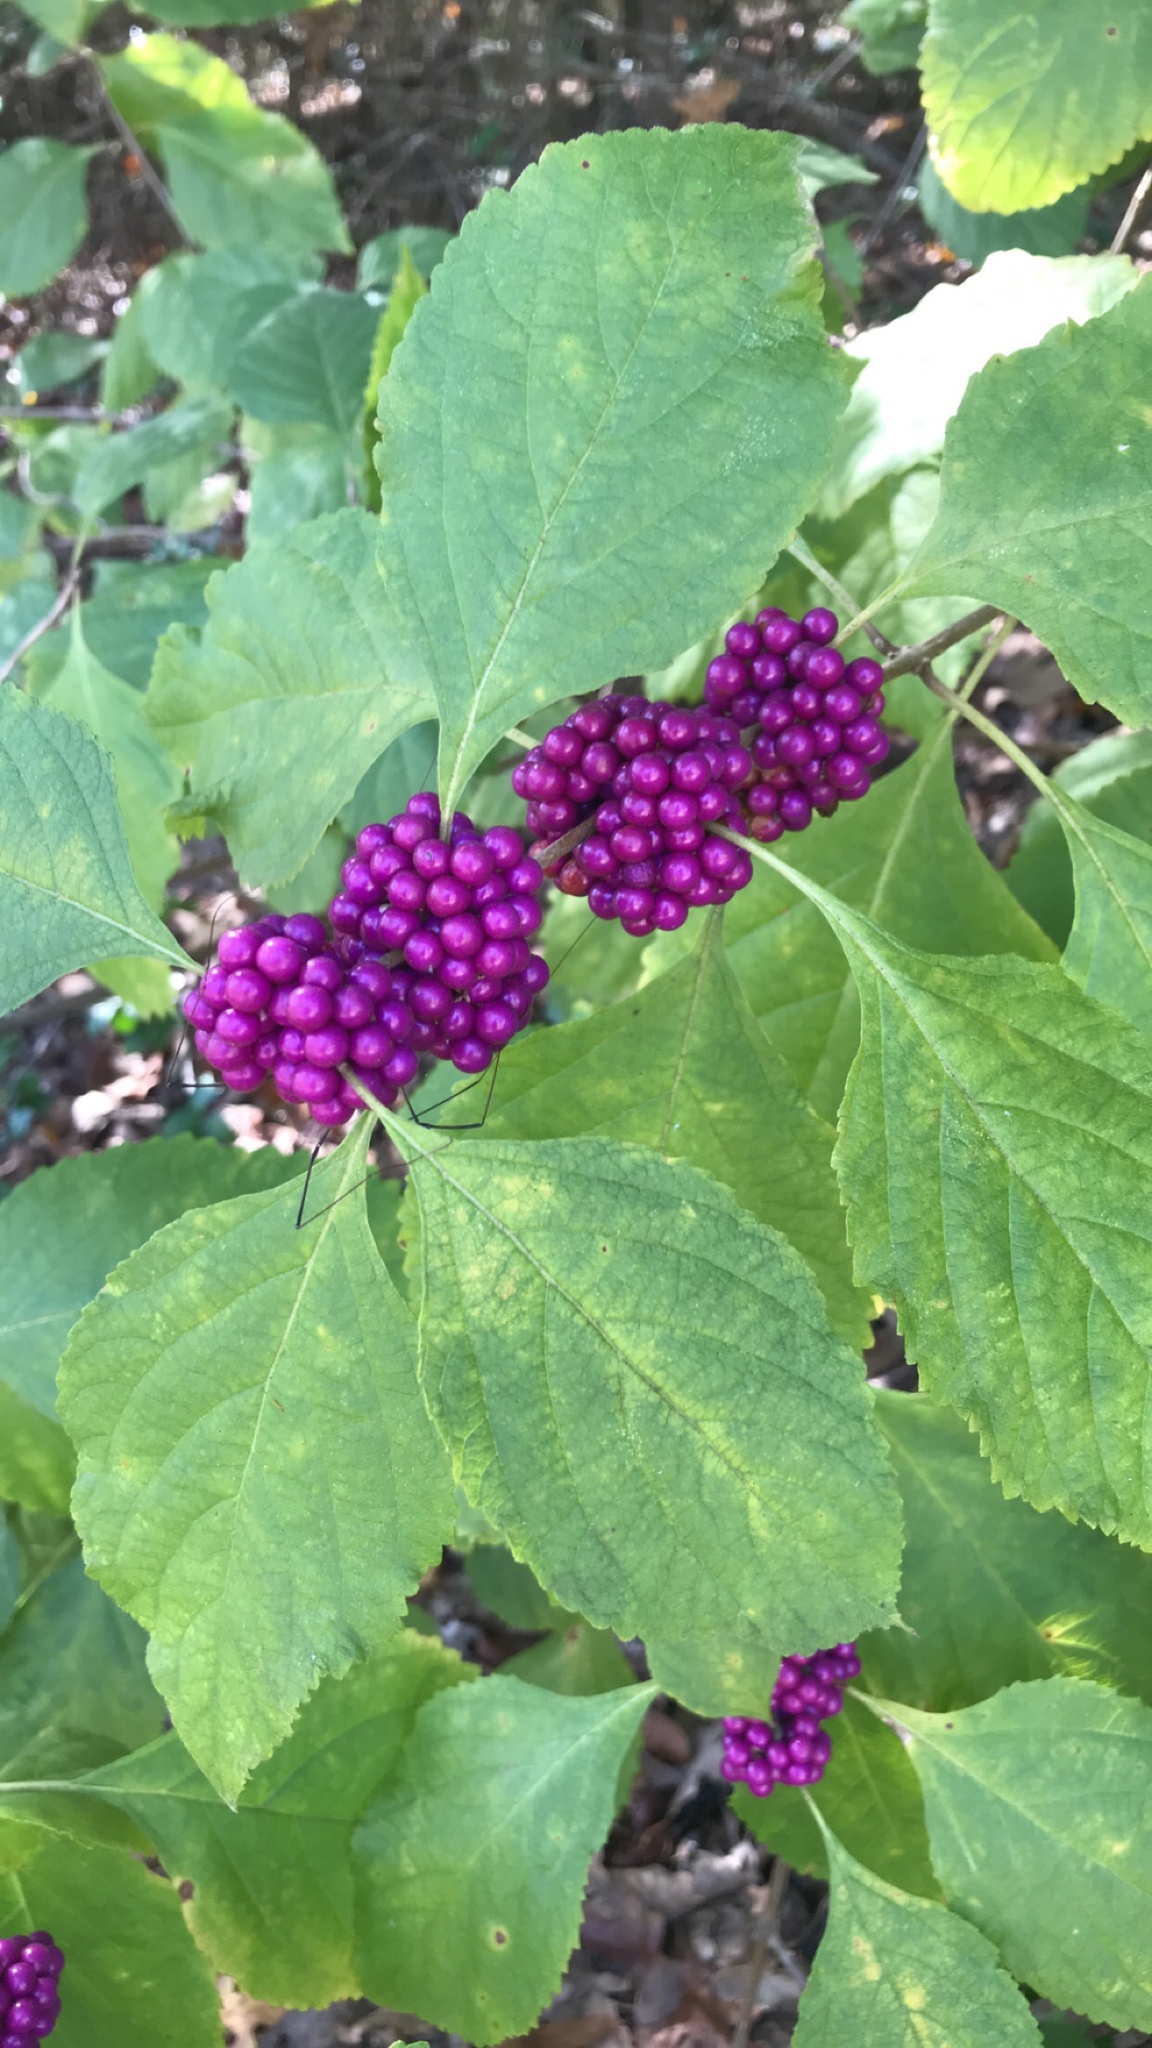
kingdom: Plantae
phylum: Tracheophyta
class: Magnoliopsida
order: Lamiales
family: Lamiaceae
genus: Callicarpa
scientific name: Callicarpa americana
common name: American beautyberry
